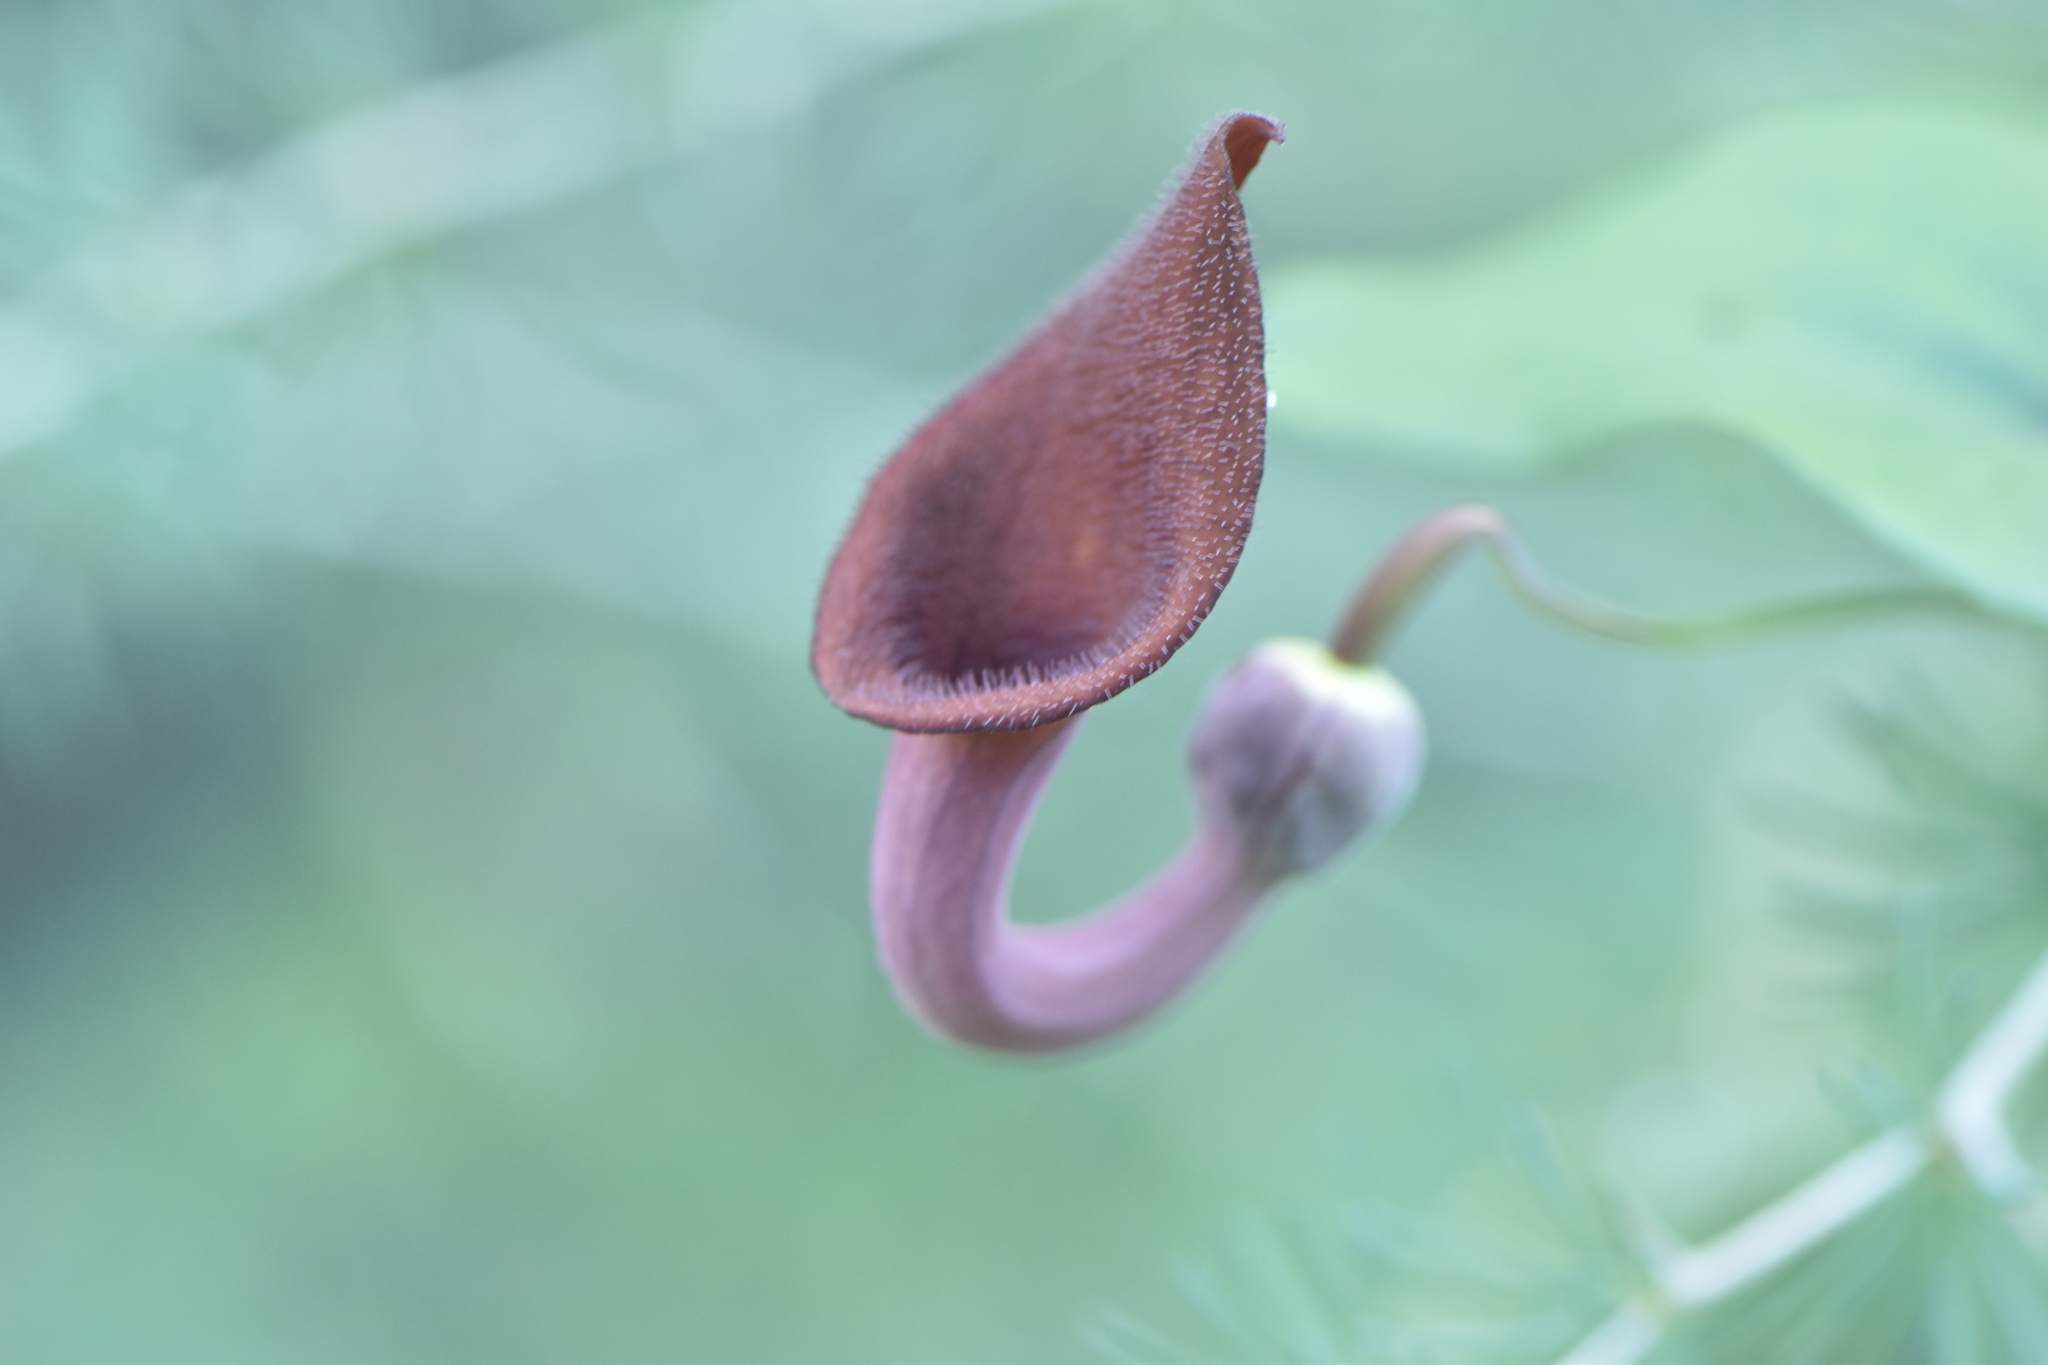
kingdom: Plantae
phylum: Tracheophyta
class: Magnoliopsida
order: Piperales
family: Aristolochiaceae
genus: Aristolochia
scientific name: Aristolochia baetica
